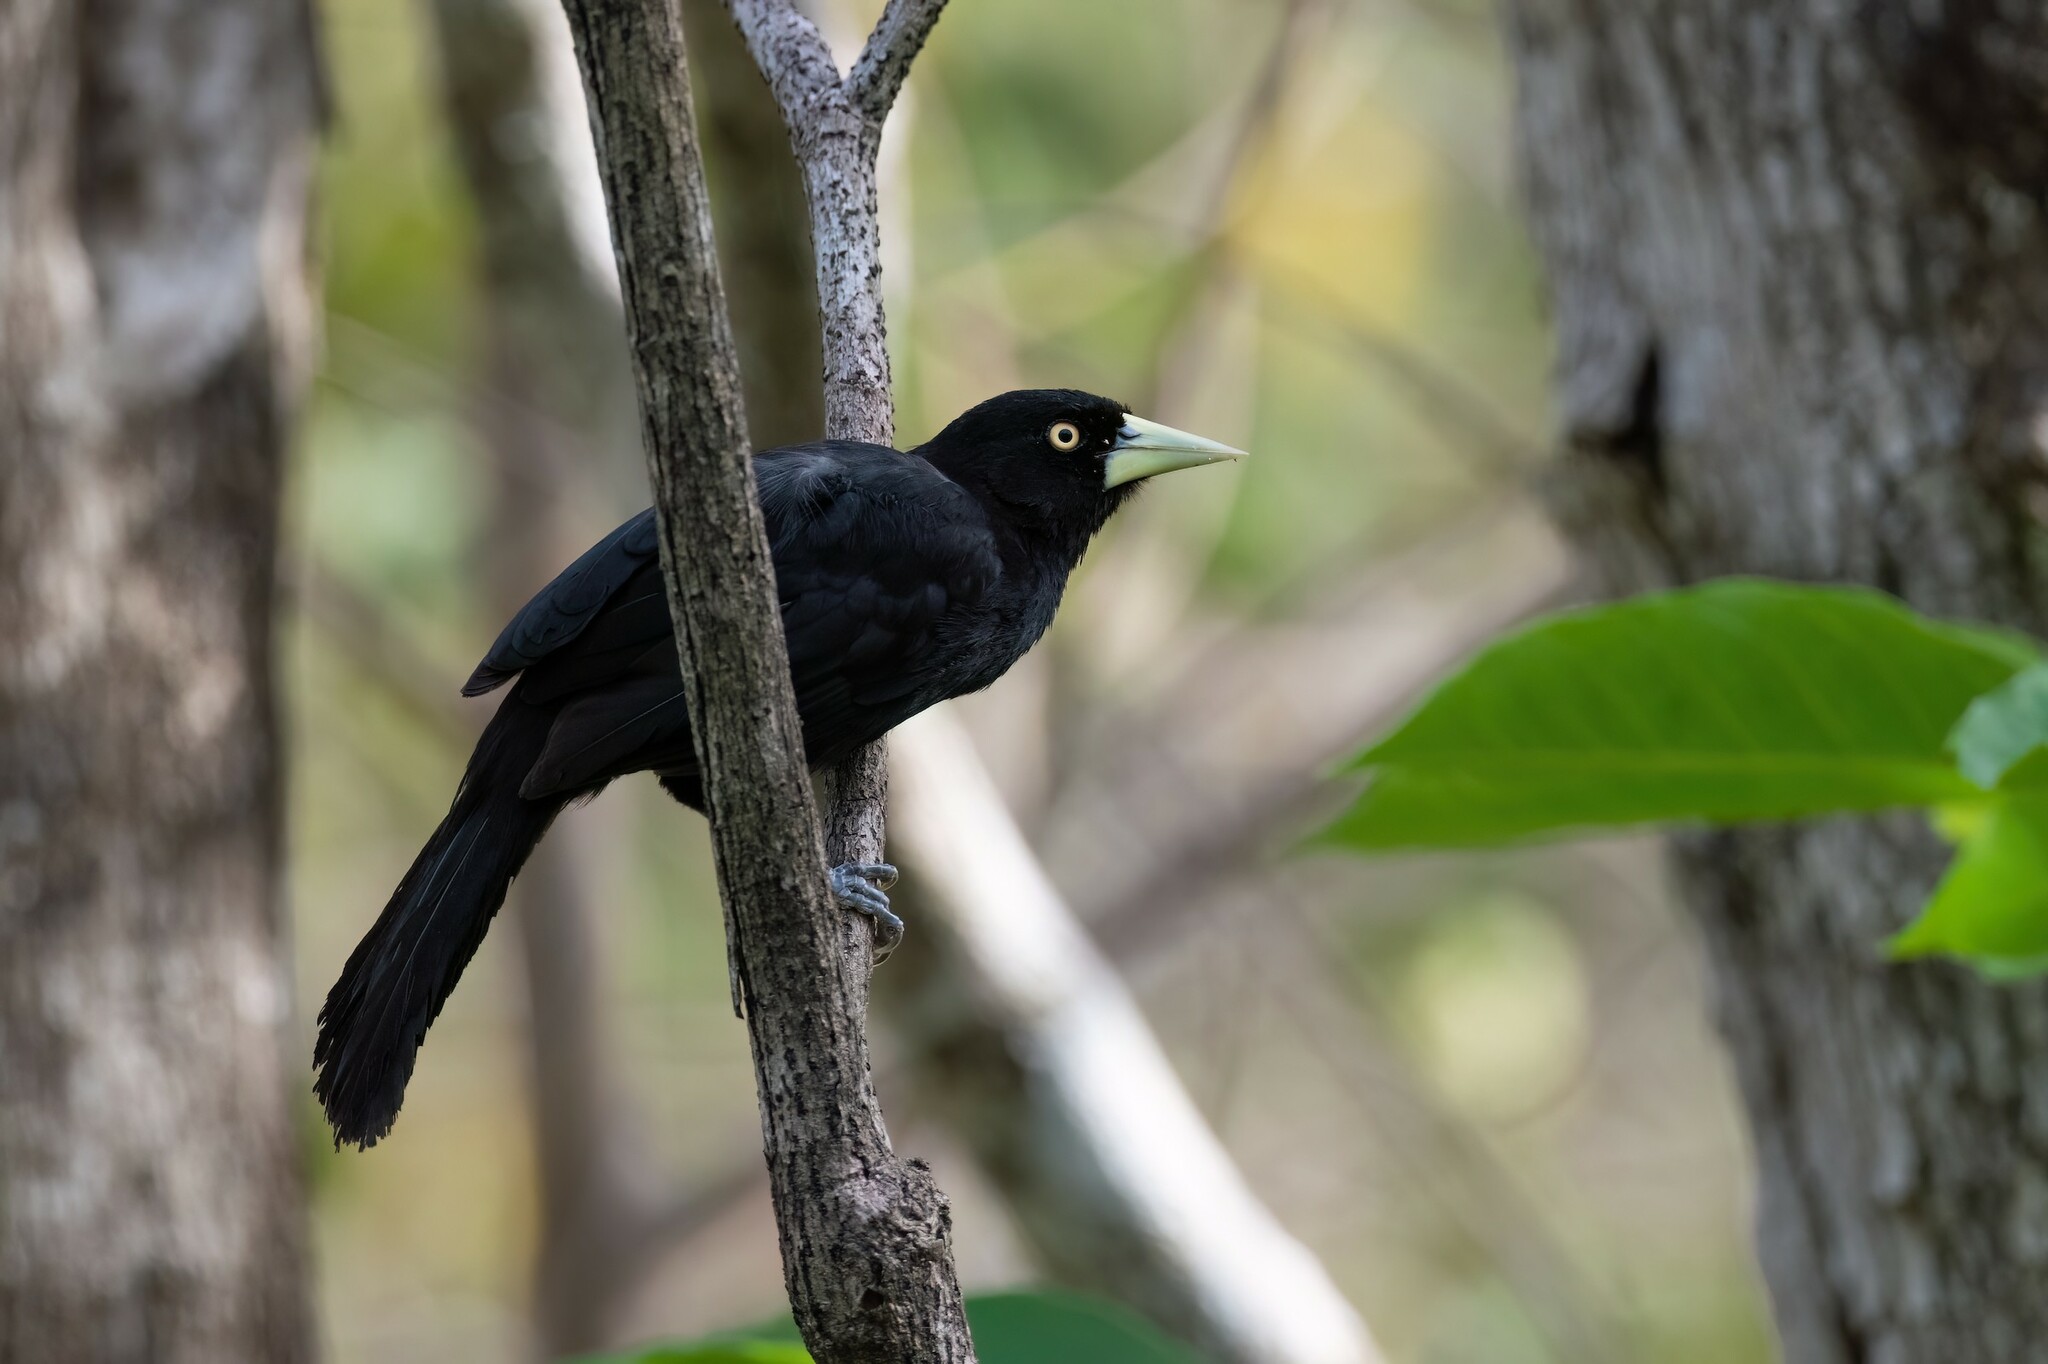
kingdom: Animalia
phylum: Chordata
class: Aves
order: Passeriformes
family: Icteridae
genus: Amblycercus
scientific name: Amblycercus holosericeus
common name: Yellow-billed cacique
